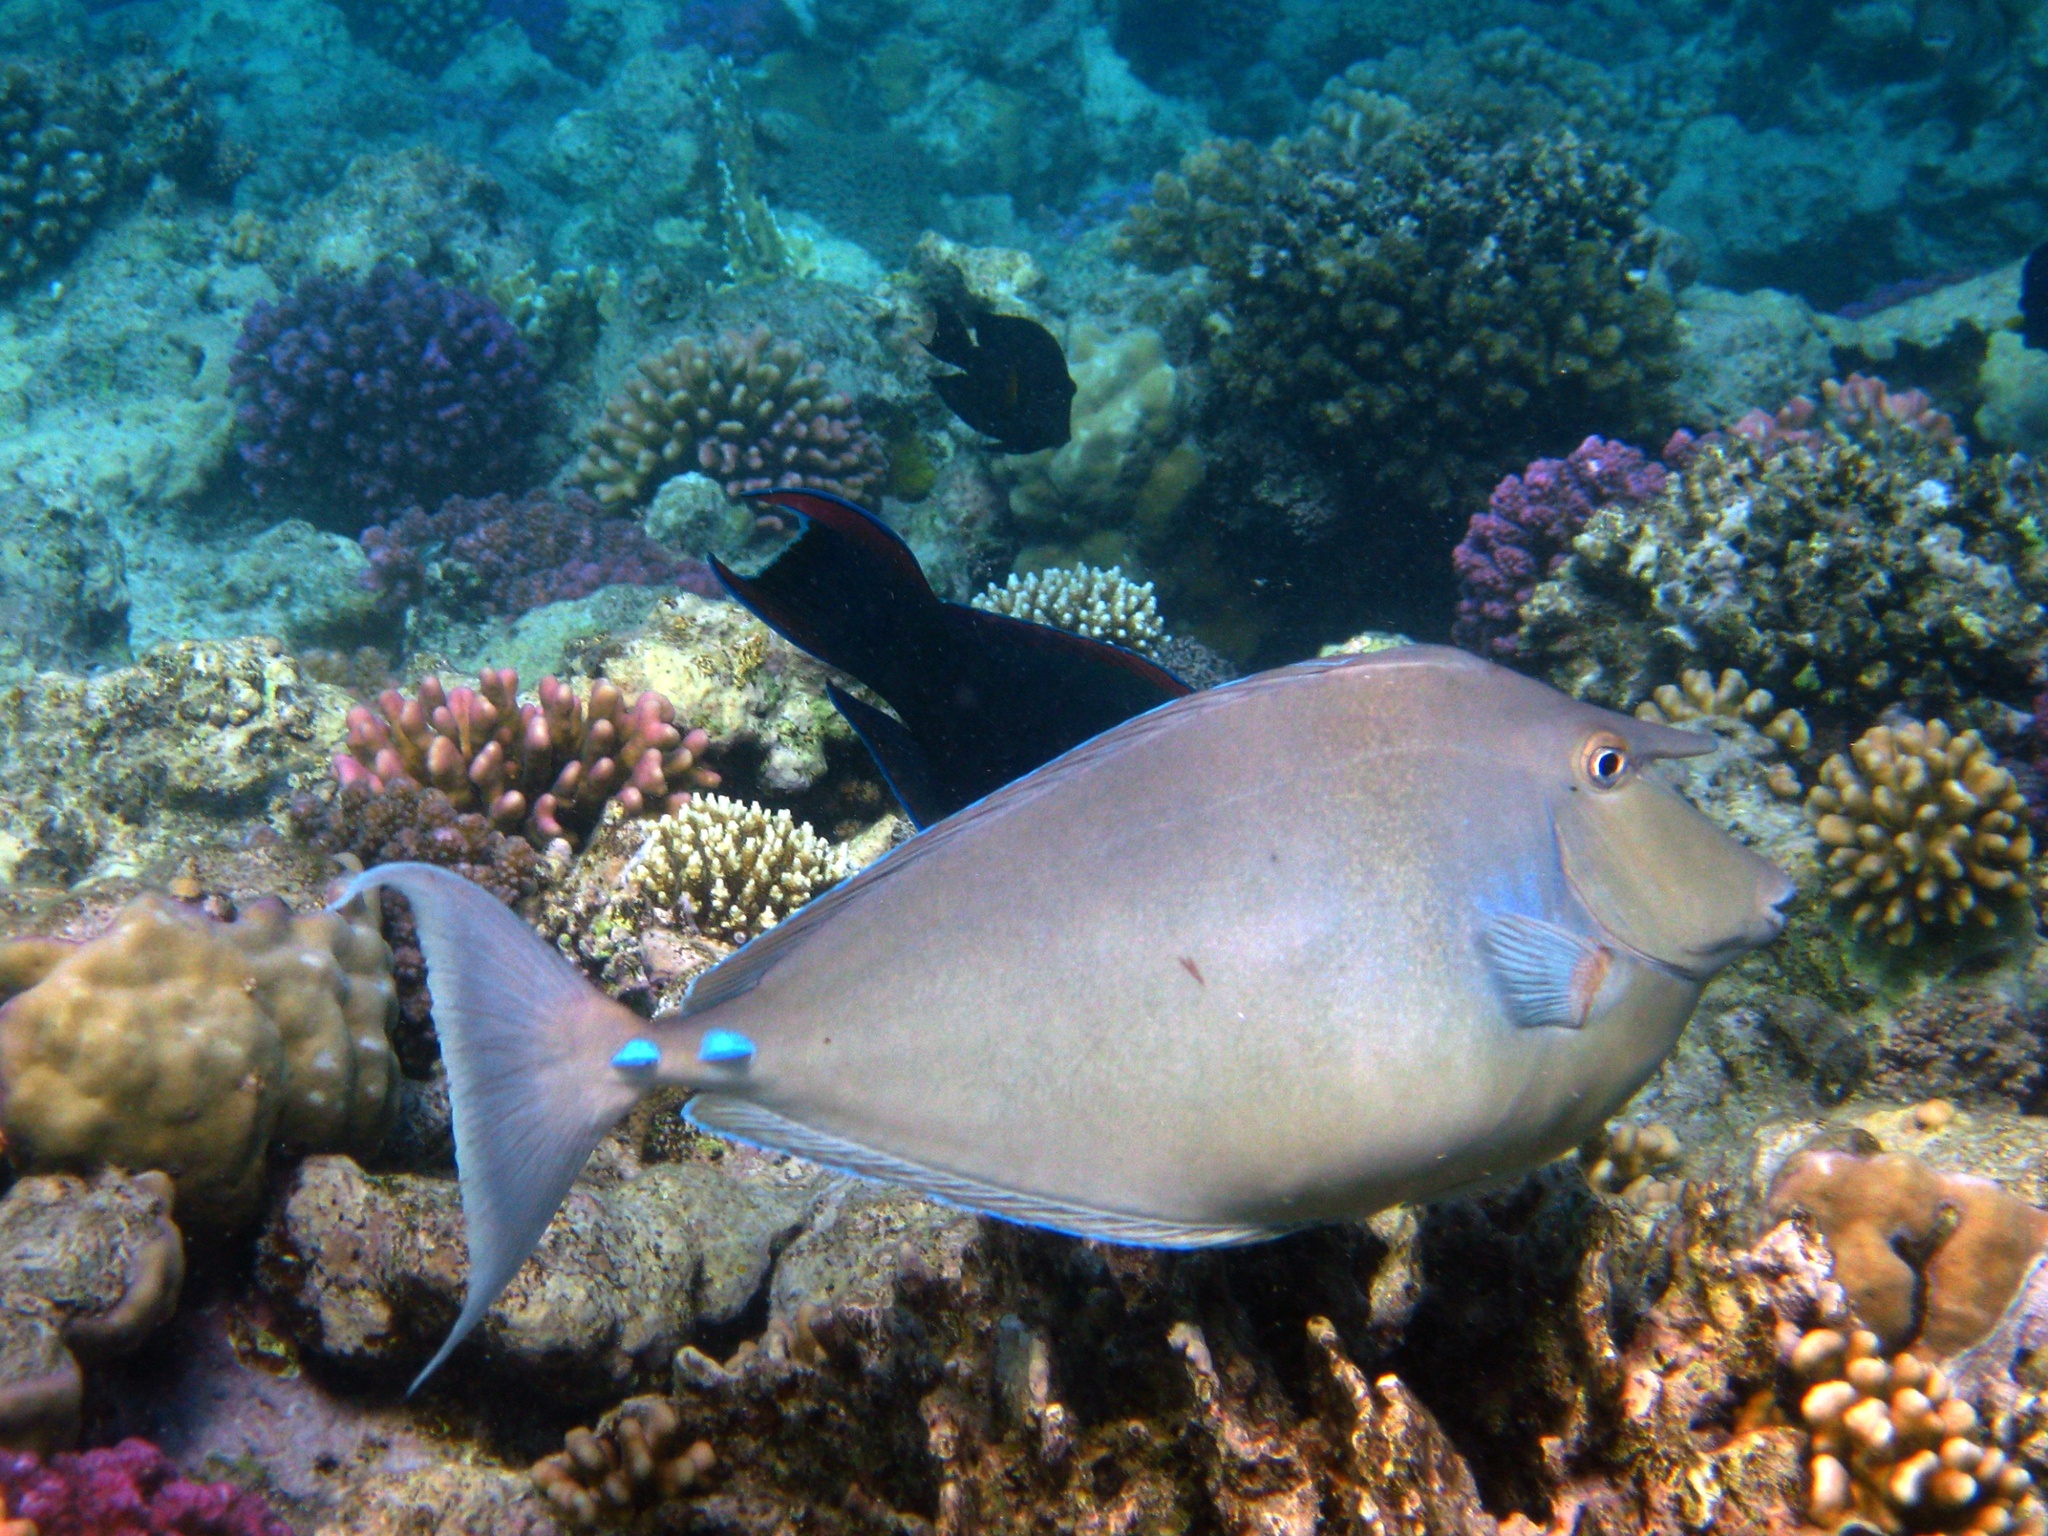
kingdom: Animalia
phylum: Chordata
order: Perciformes
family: Acanthuridae
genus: Naso
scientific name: Naso unicornis
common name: Bluespine unicornfish
